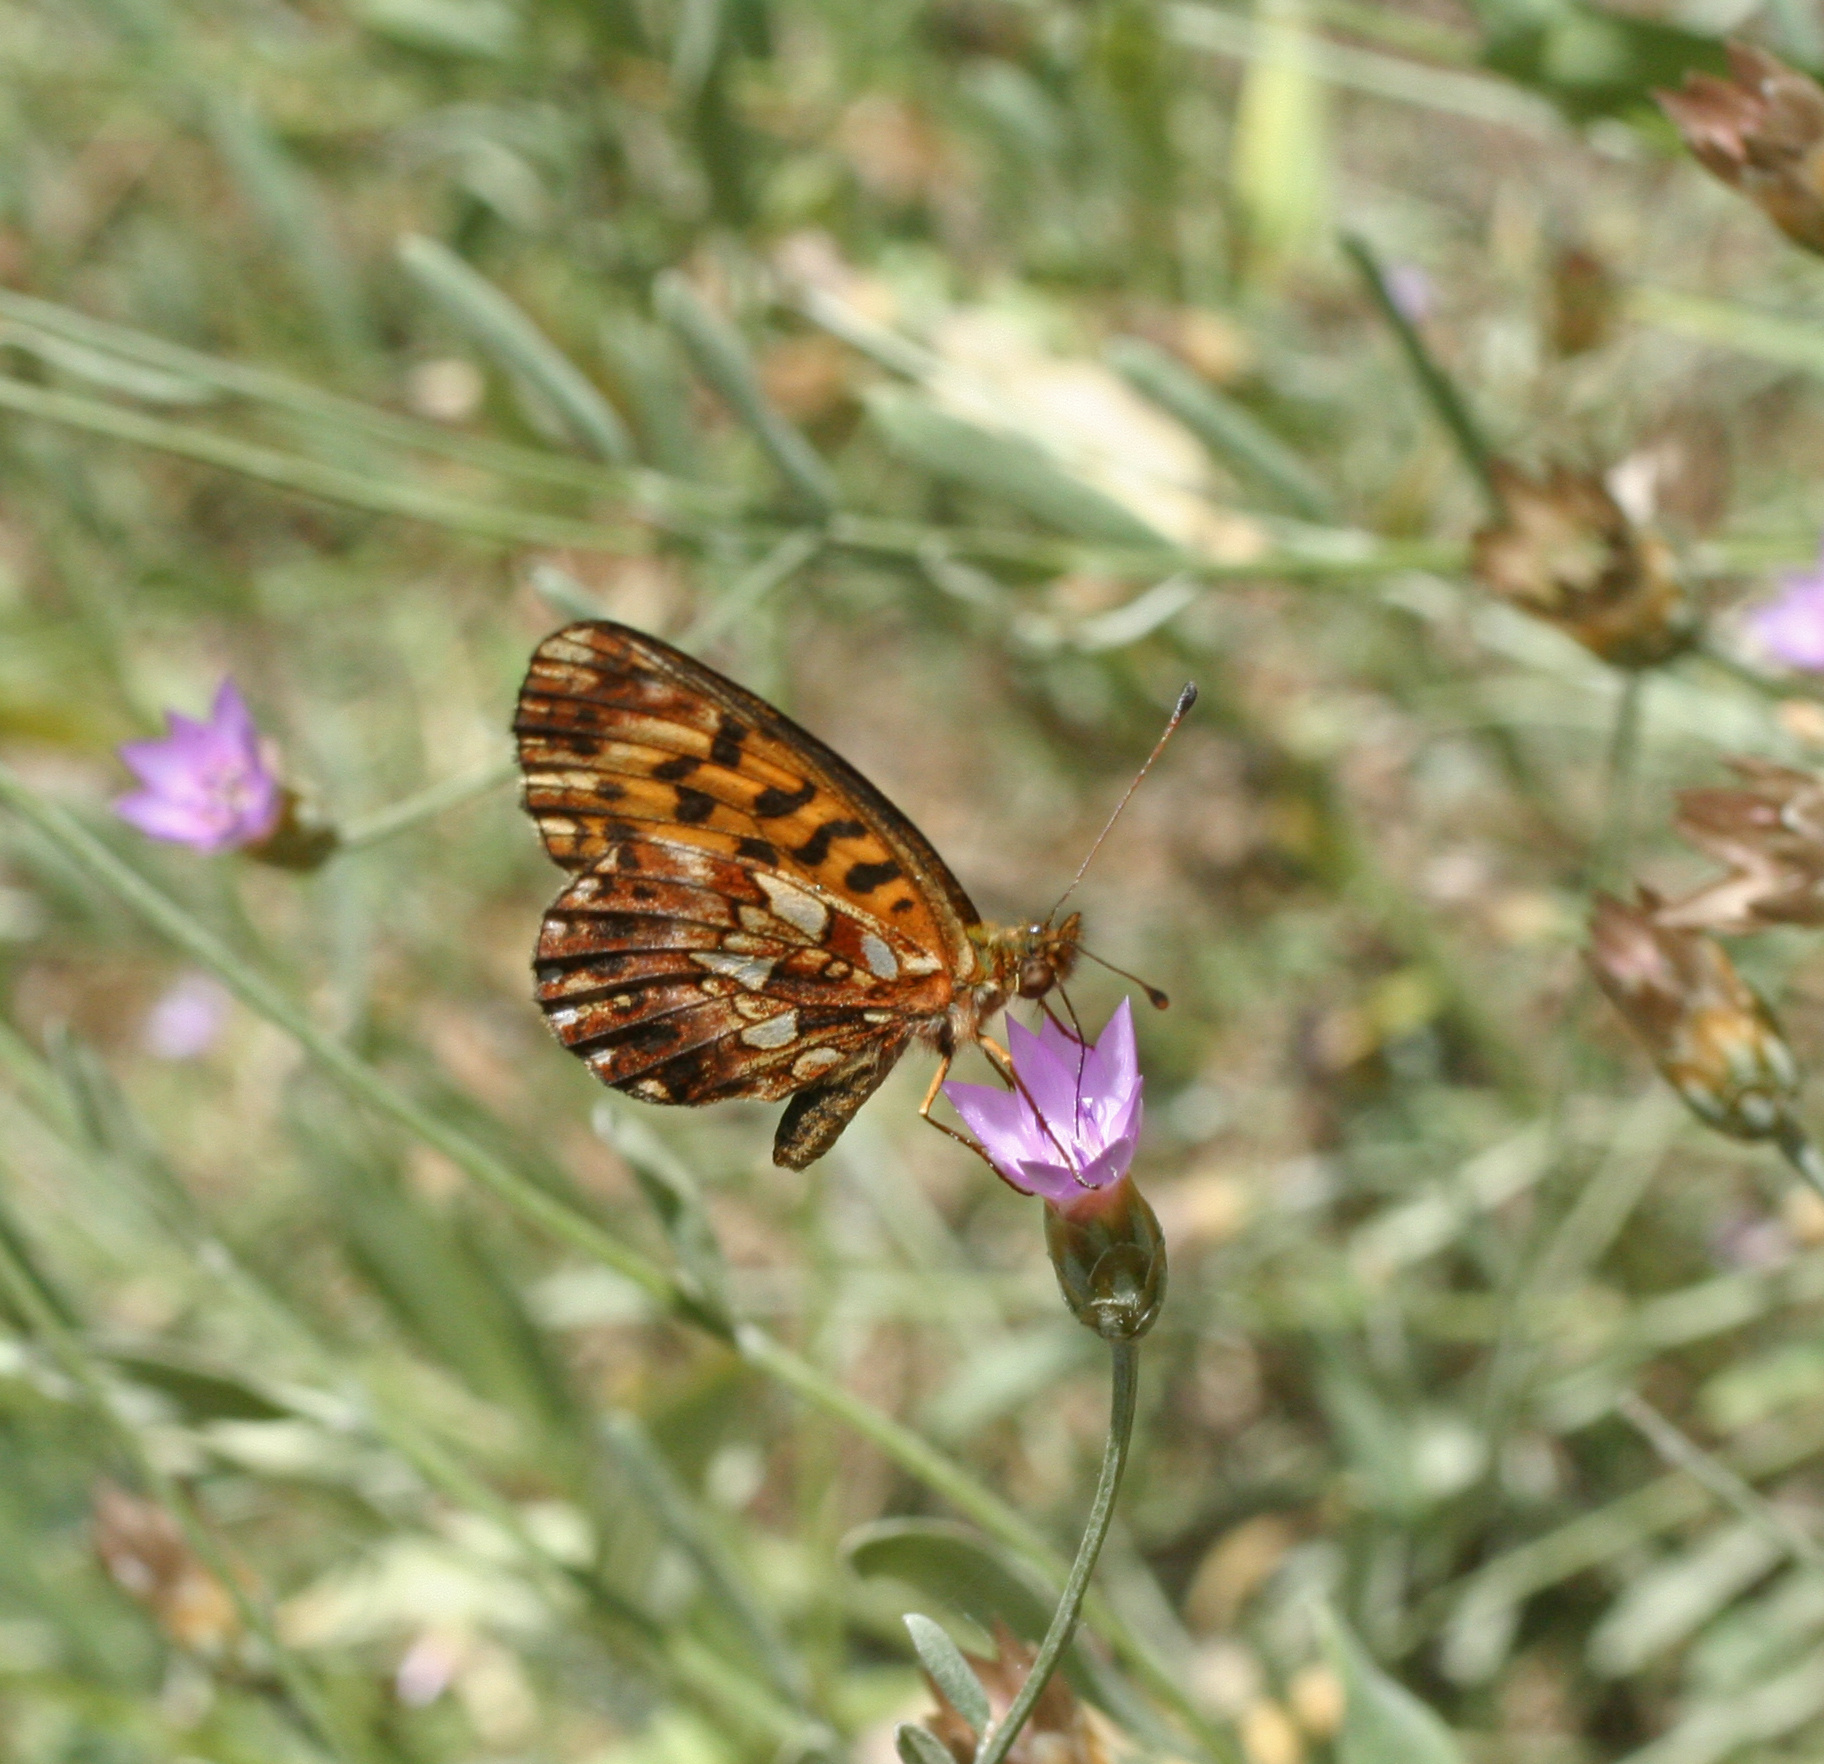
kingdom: Animalia
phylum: Arthropoda
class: Insecta
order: Lepidoptera
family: Nymphalidae
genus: Boloria
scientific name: Boloria dia
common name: Weaver's fritillary
